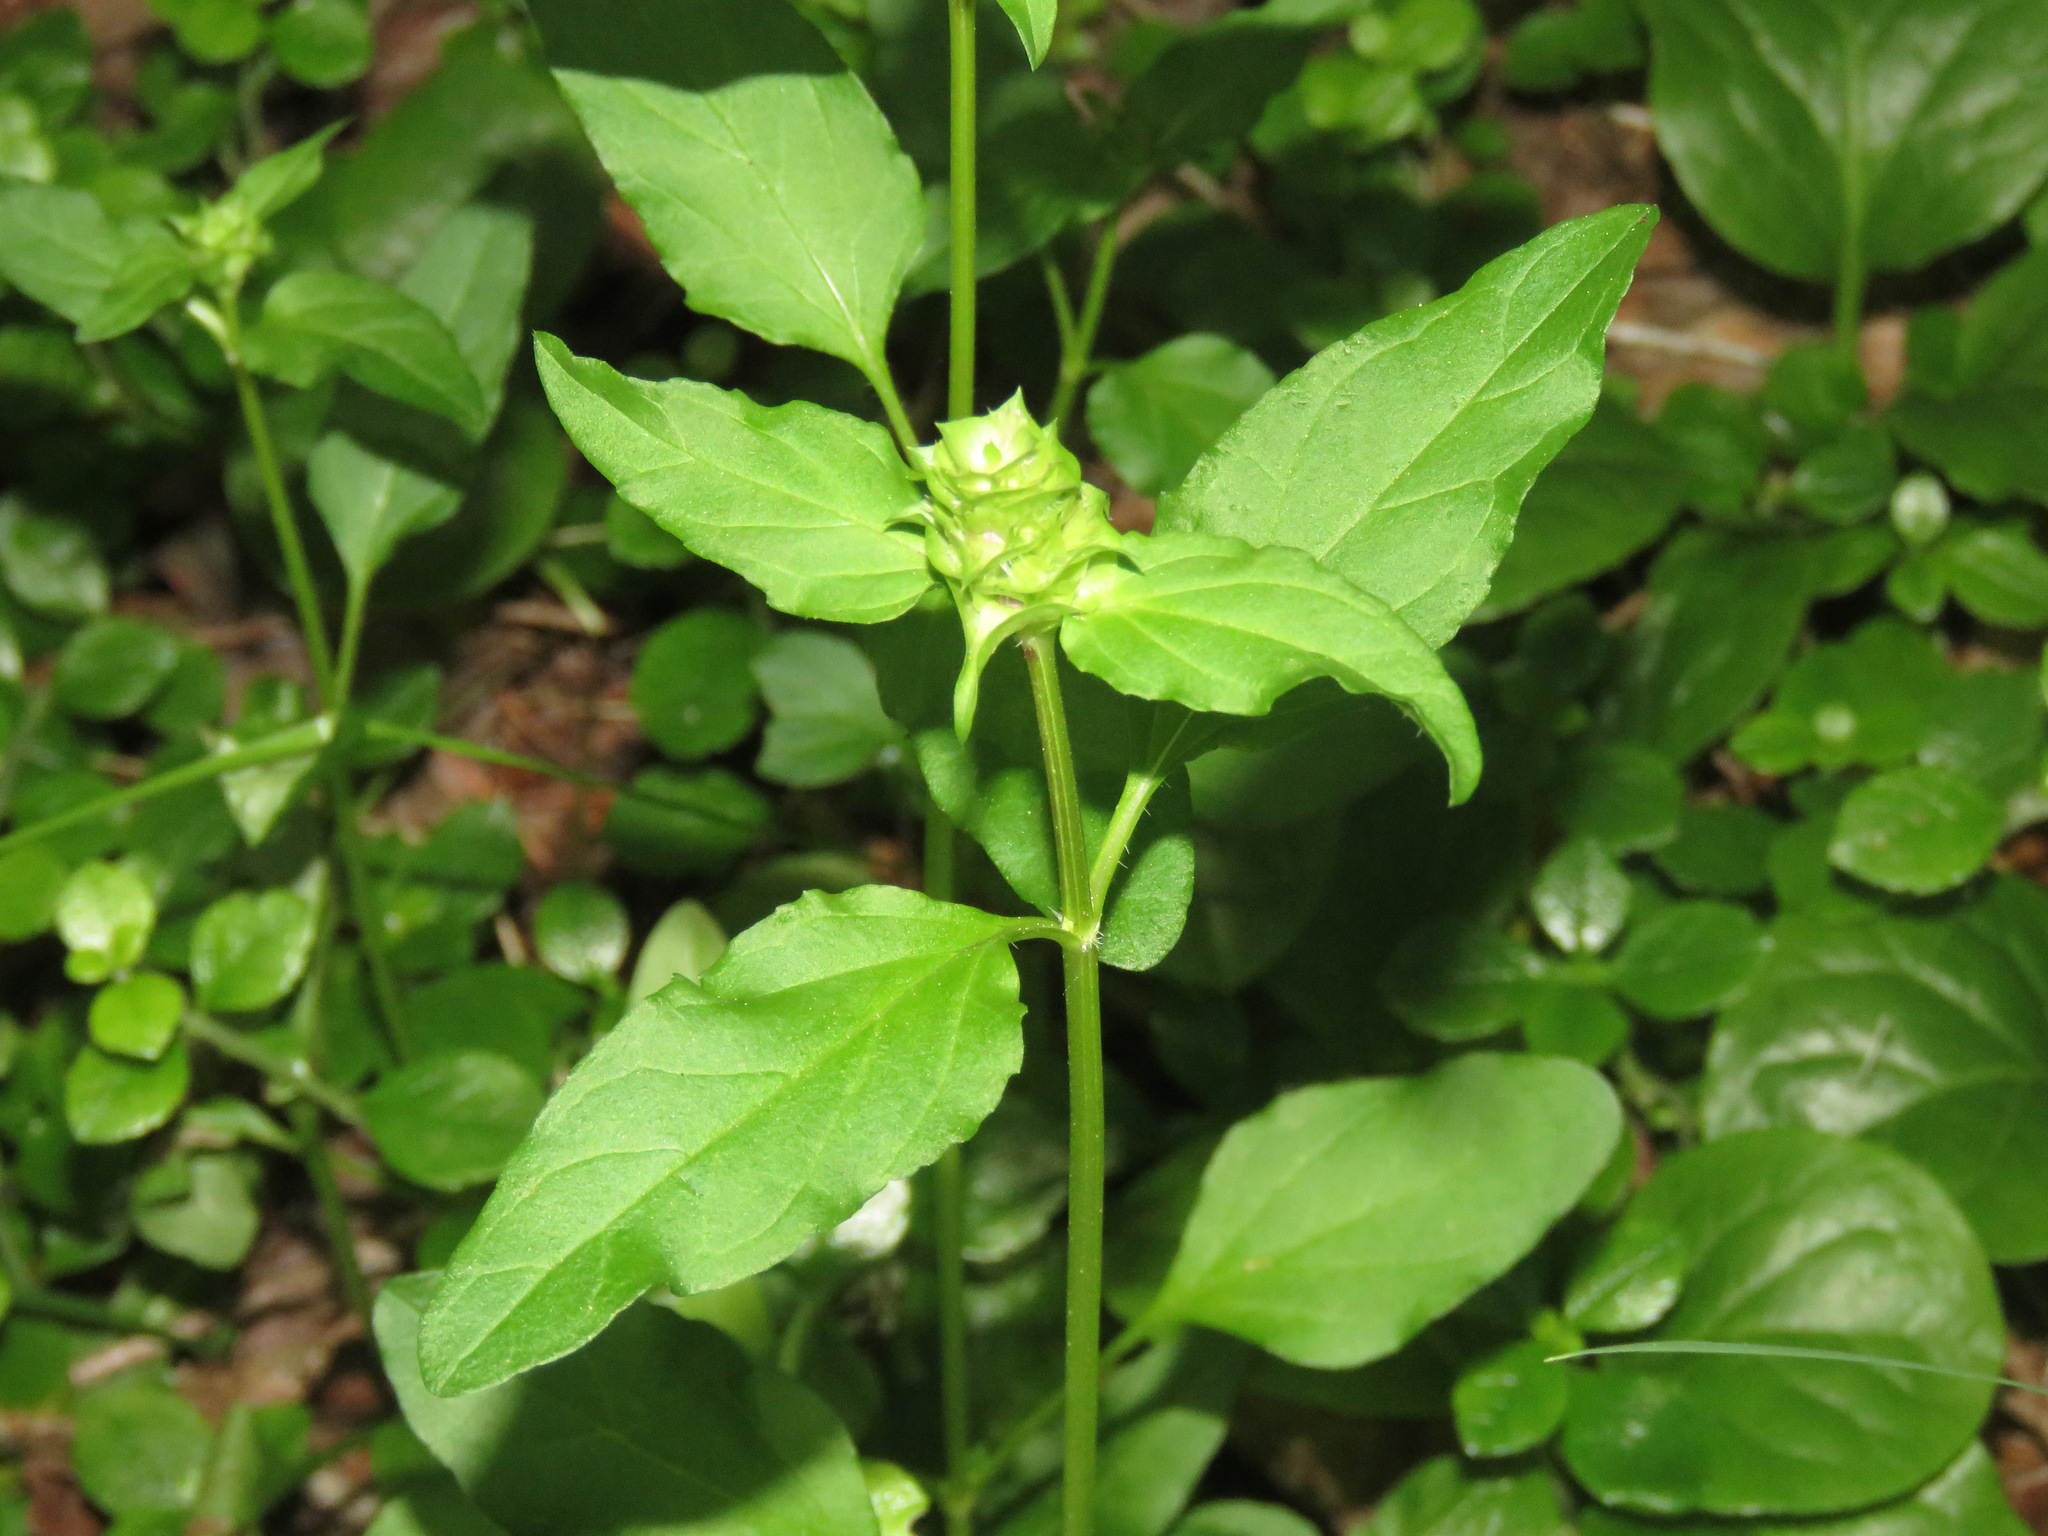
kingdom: Plantae
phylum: Tracheophyta
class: Magnoliopsida
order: Lamiales
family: Lamiaceae
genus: Prunella
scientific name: Prunella vulgaris
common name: Heal-all
